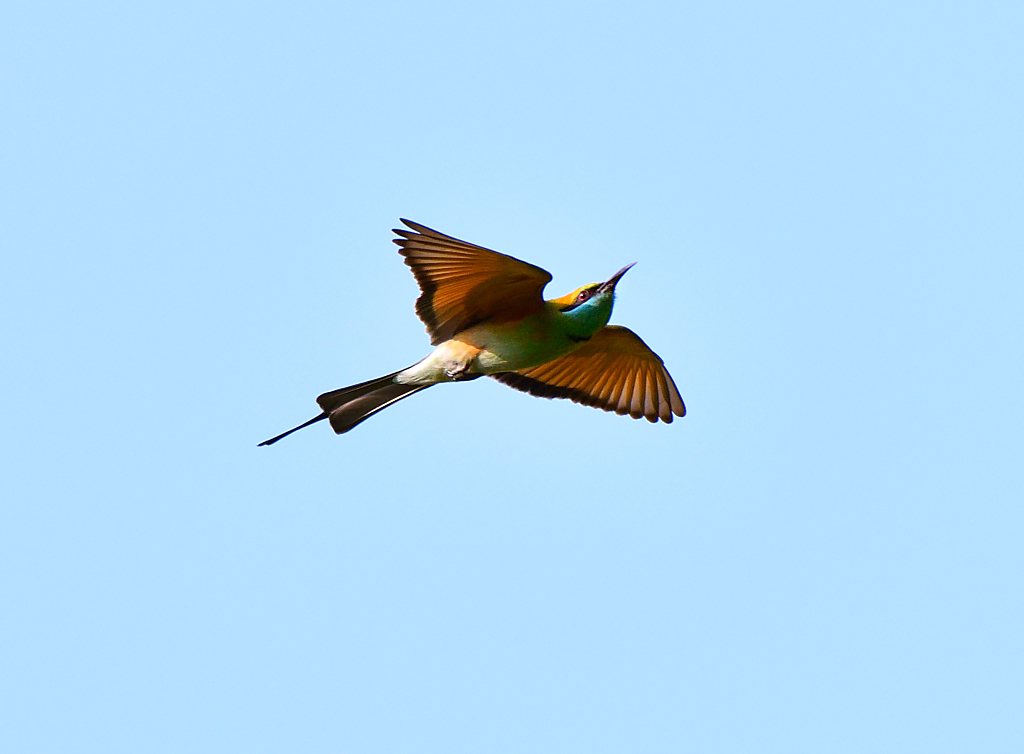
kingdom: Animalia
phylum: Chordata
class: Aves
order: Coraciiformes
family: Meropidae
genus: Merops
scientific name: Merops orientalis
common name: Green bee-eater
